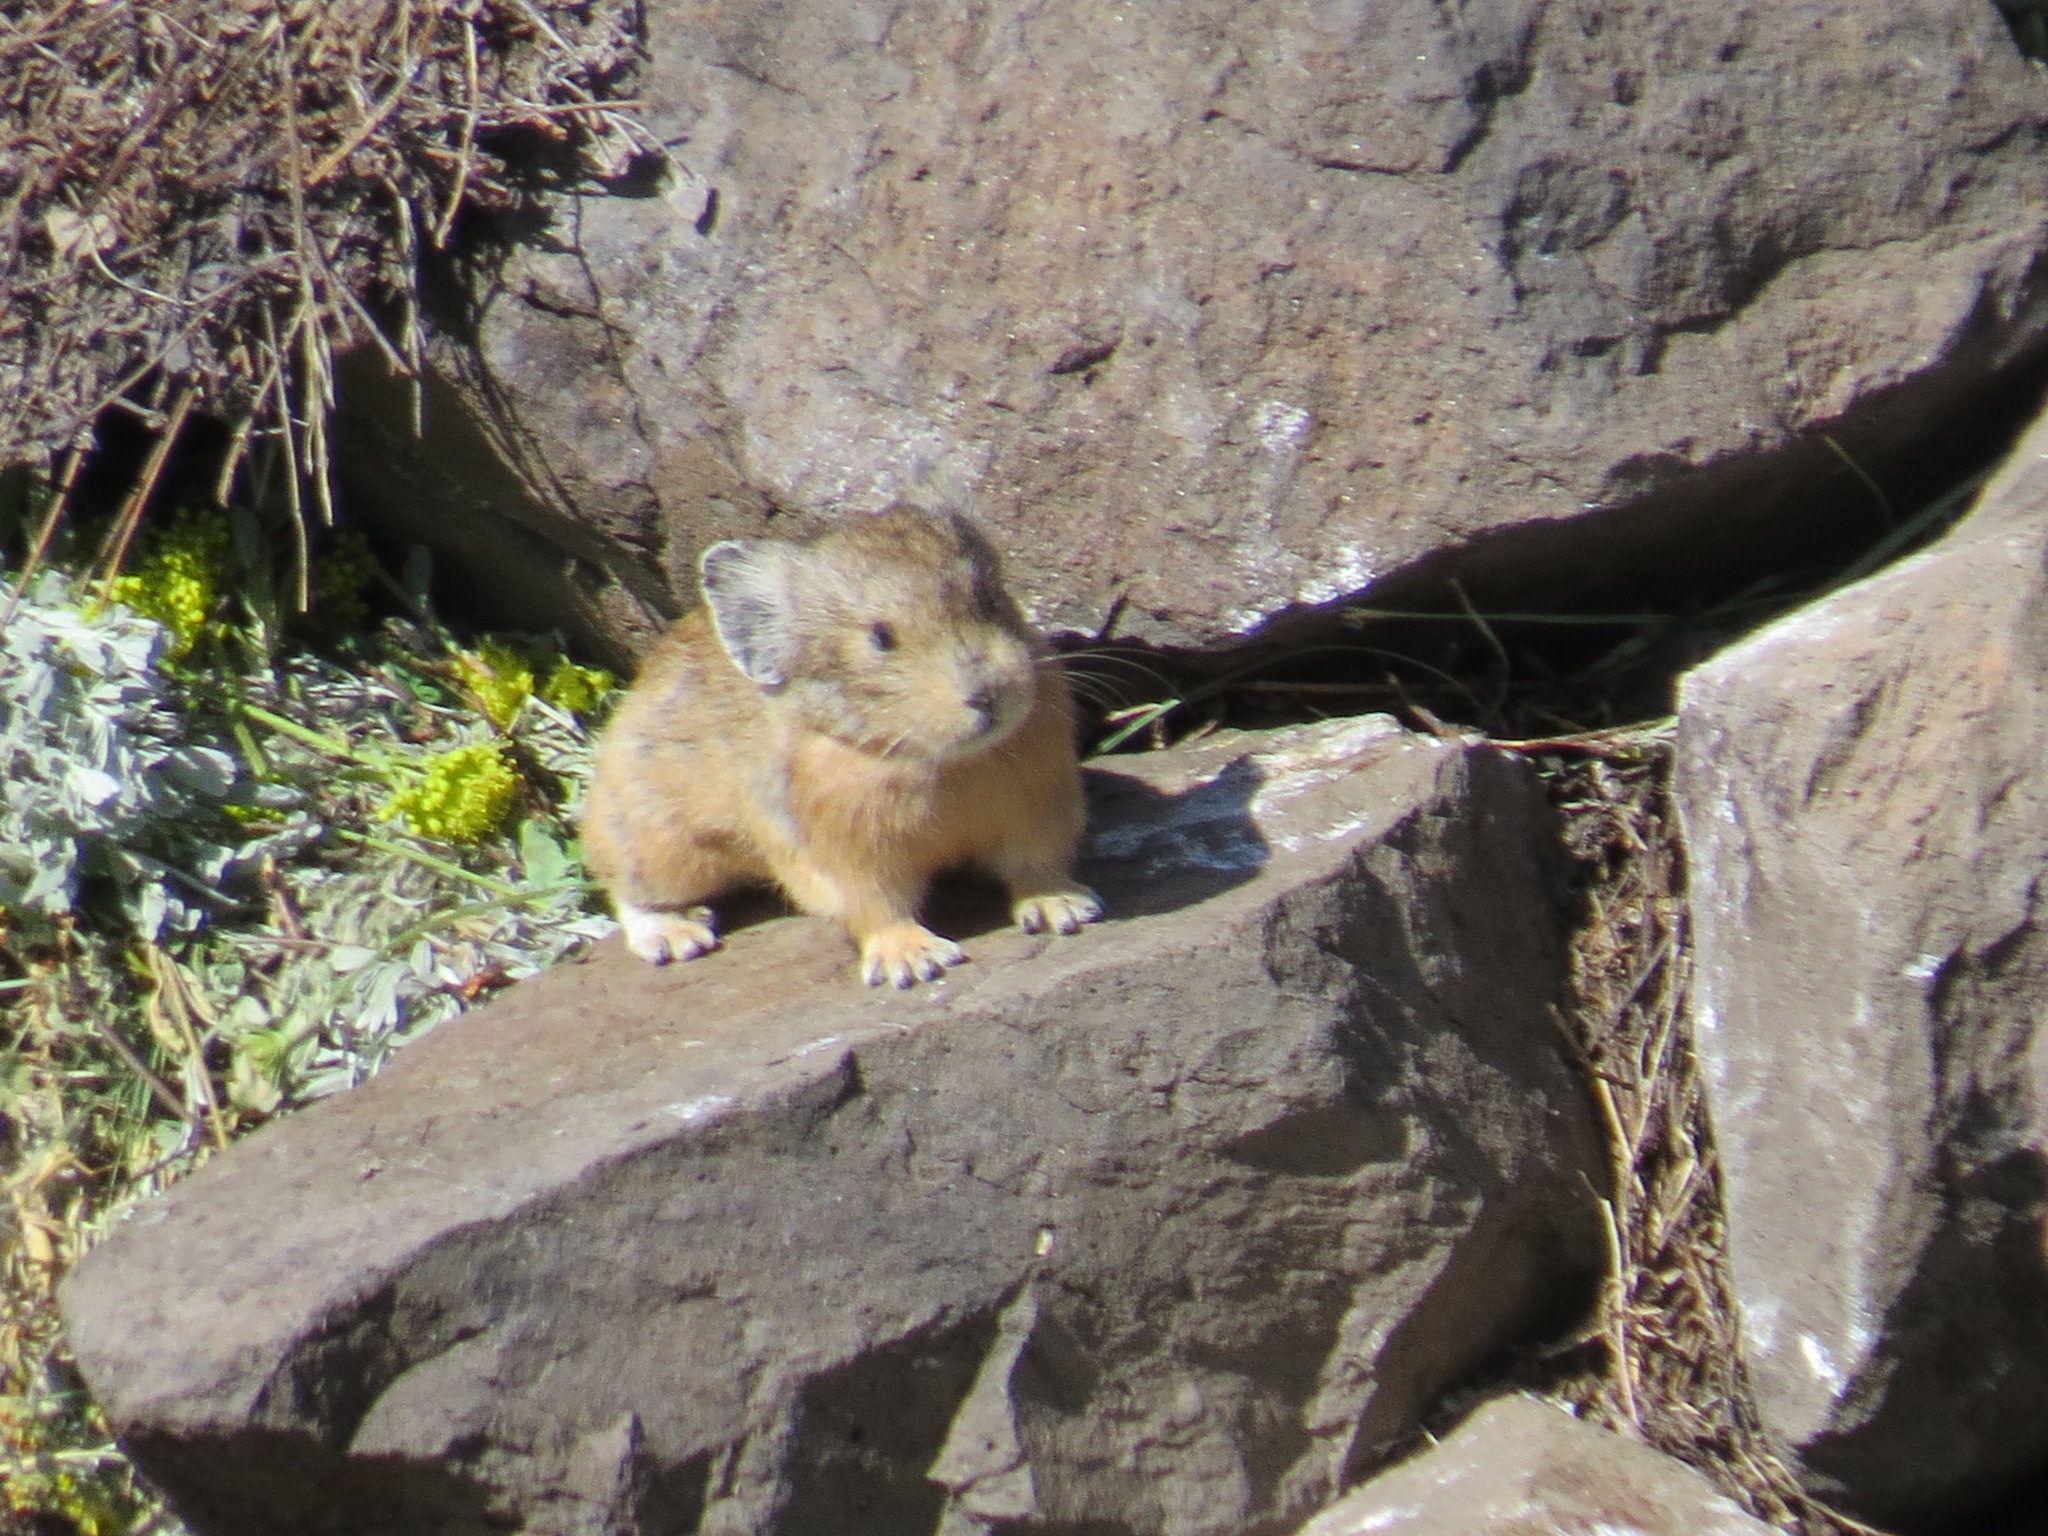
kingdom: Animalia
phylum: Chordata
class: Mammalia
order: Lagomorpha
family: Ochotonidae
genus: Ochotona
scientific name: Ochotona princeps
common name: American pika
